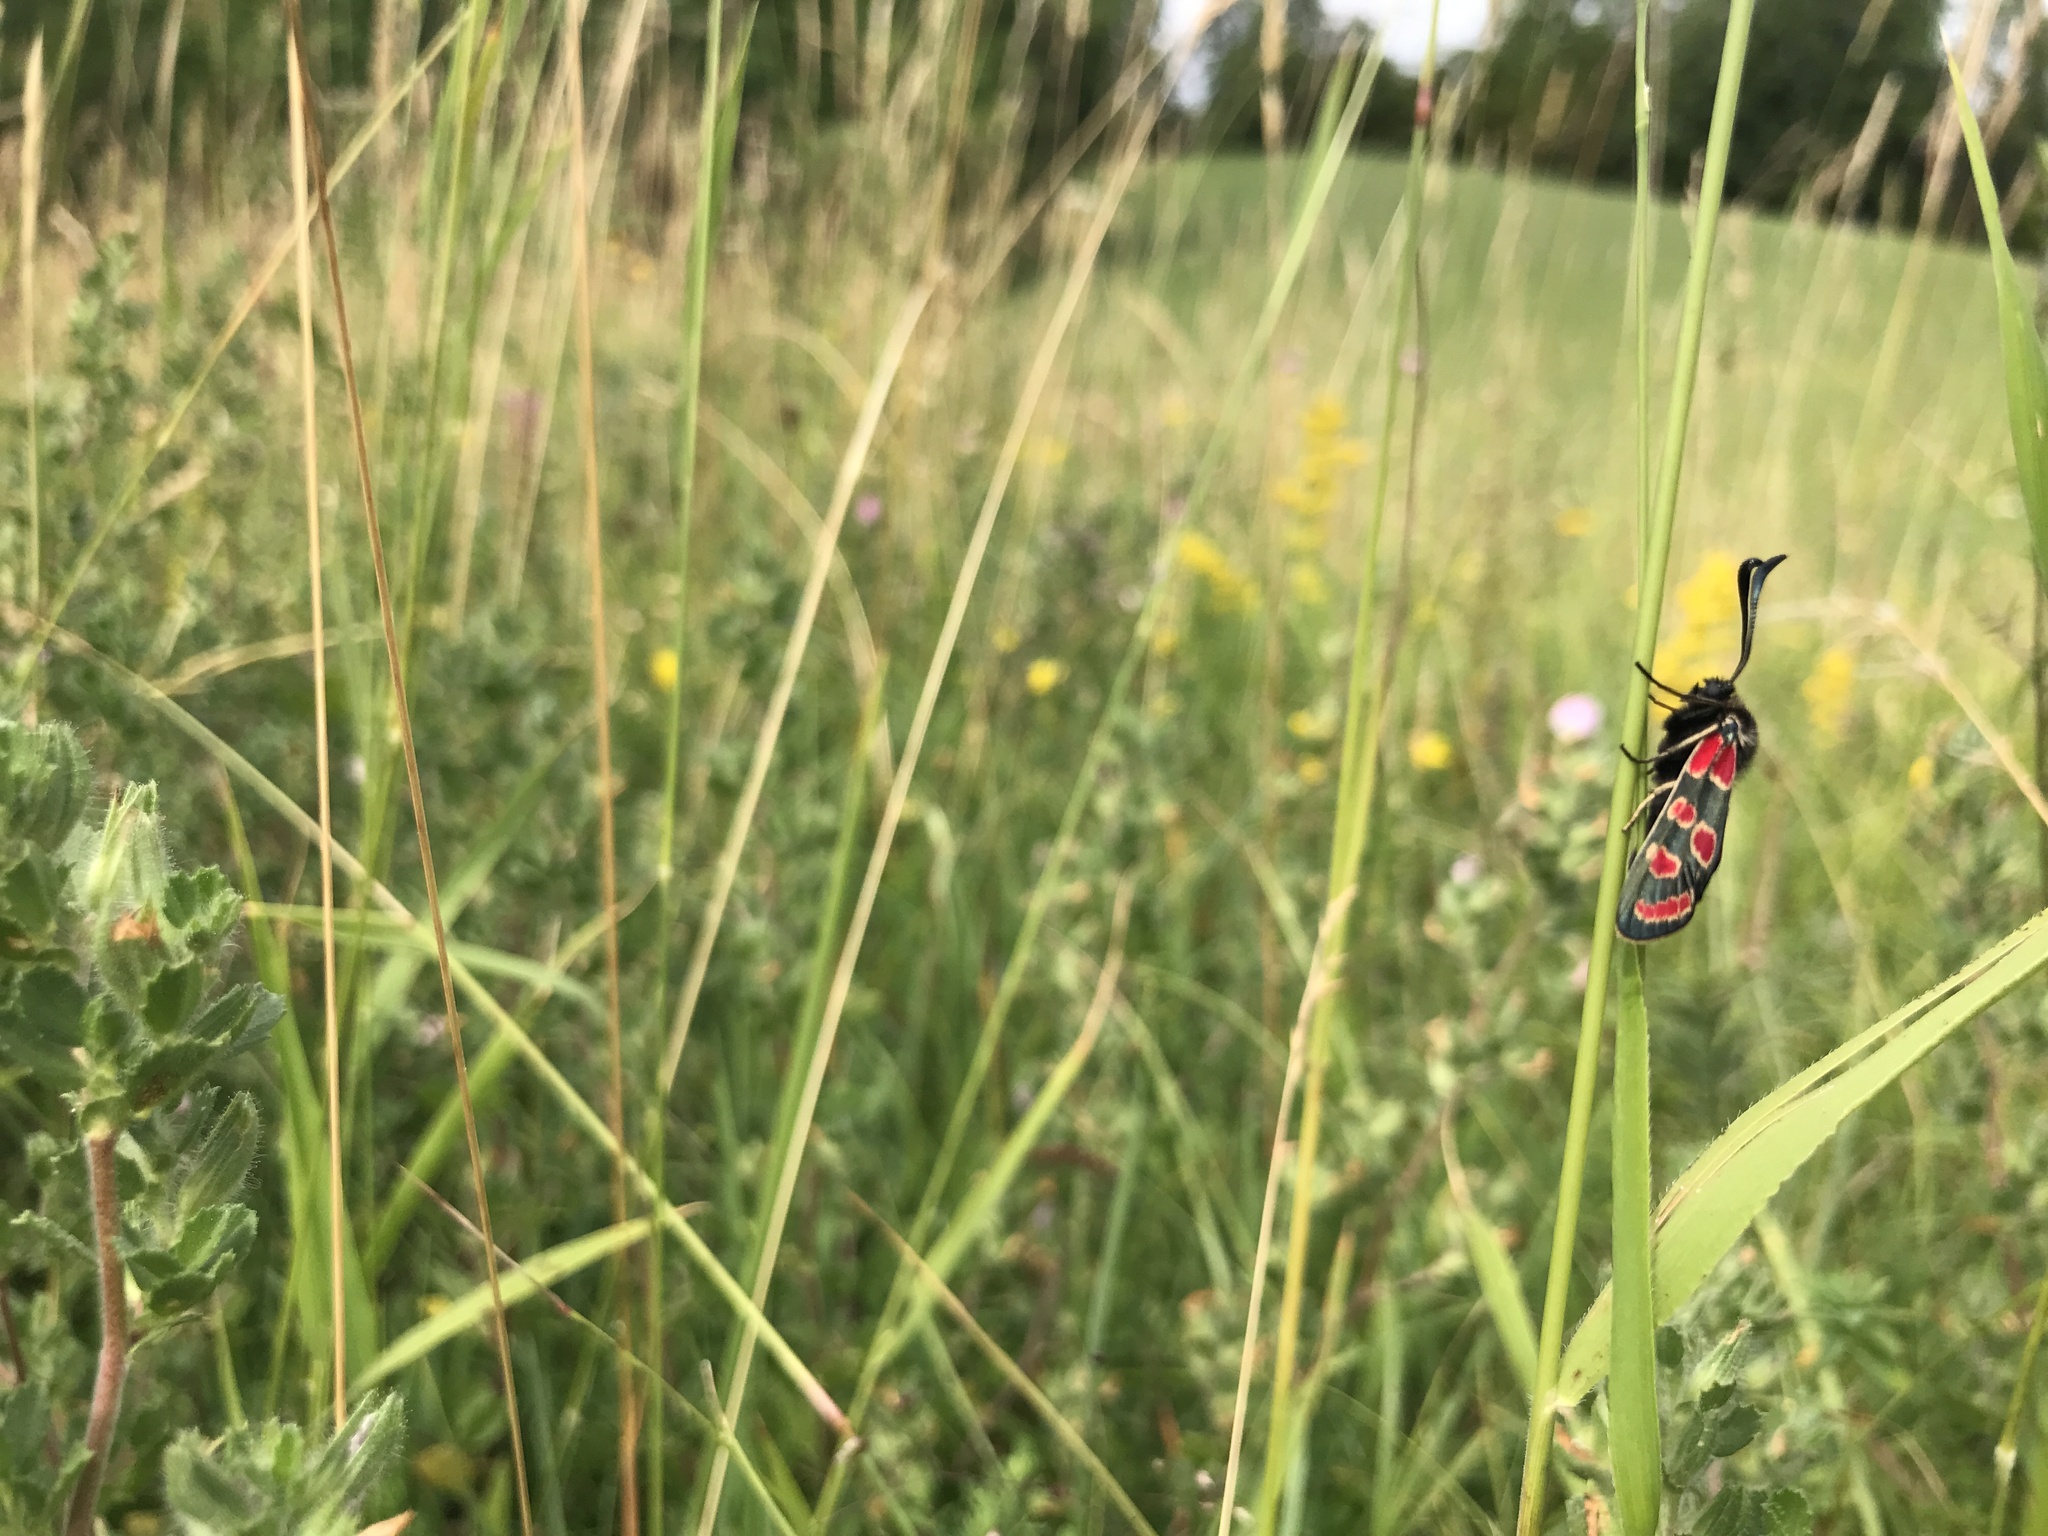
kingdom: Animalia
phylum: Arthropoda
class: Insecta
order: Lepidoptera
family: Zygaenidae
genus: Zygaena
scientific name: Zygaena carniolica
